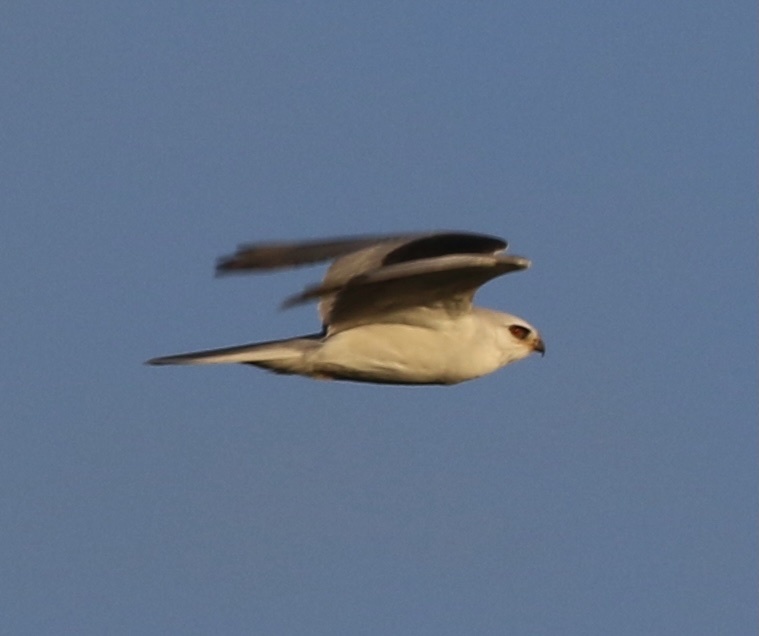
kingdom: Animalia
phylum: Chordata
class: Aves
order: Accipitriformes
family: Accipitridae
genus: Elanus
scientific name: Elanus leucurus
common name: White-tailed kite
